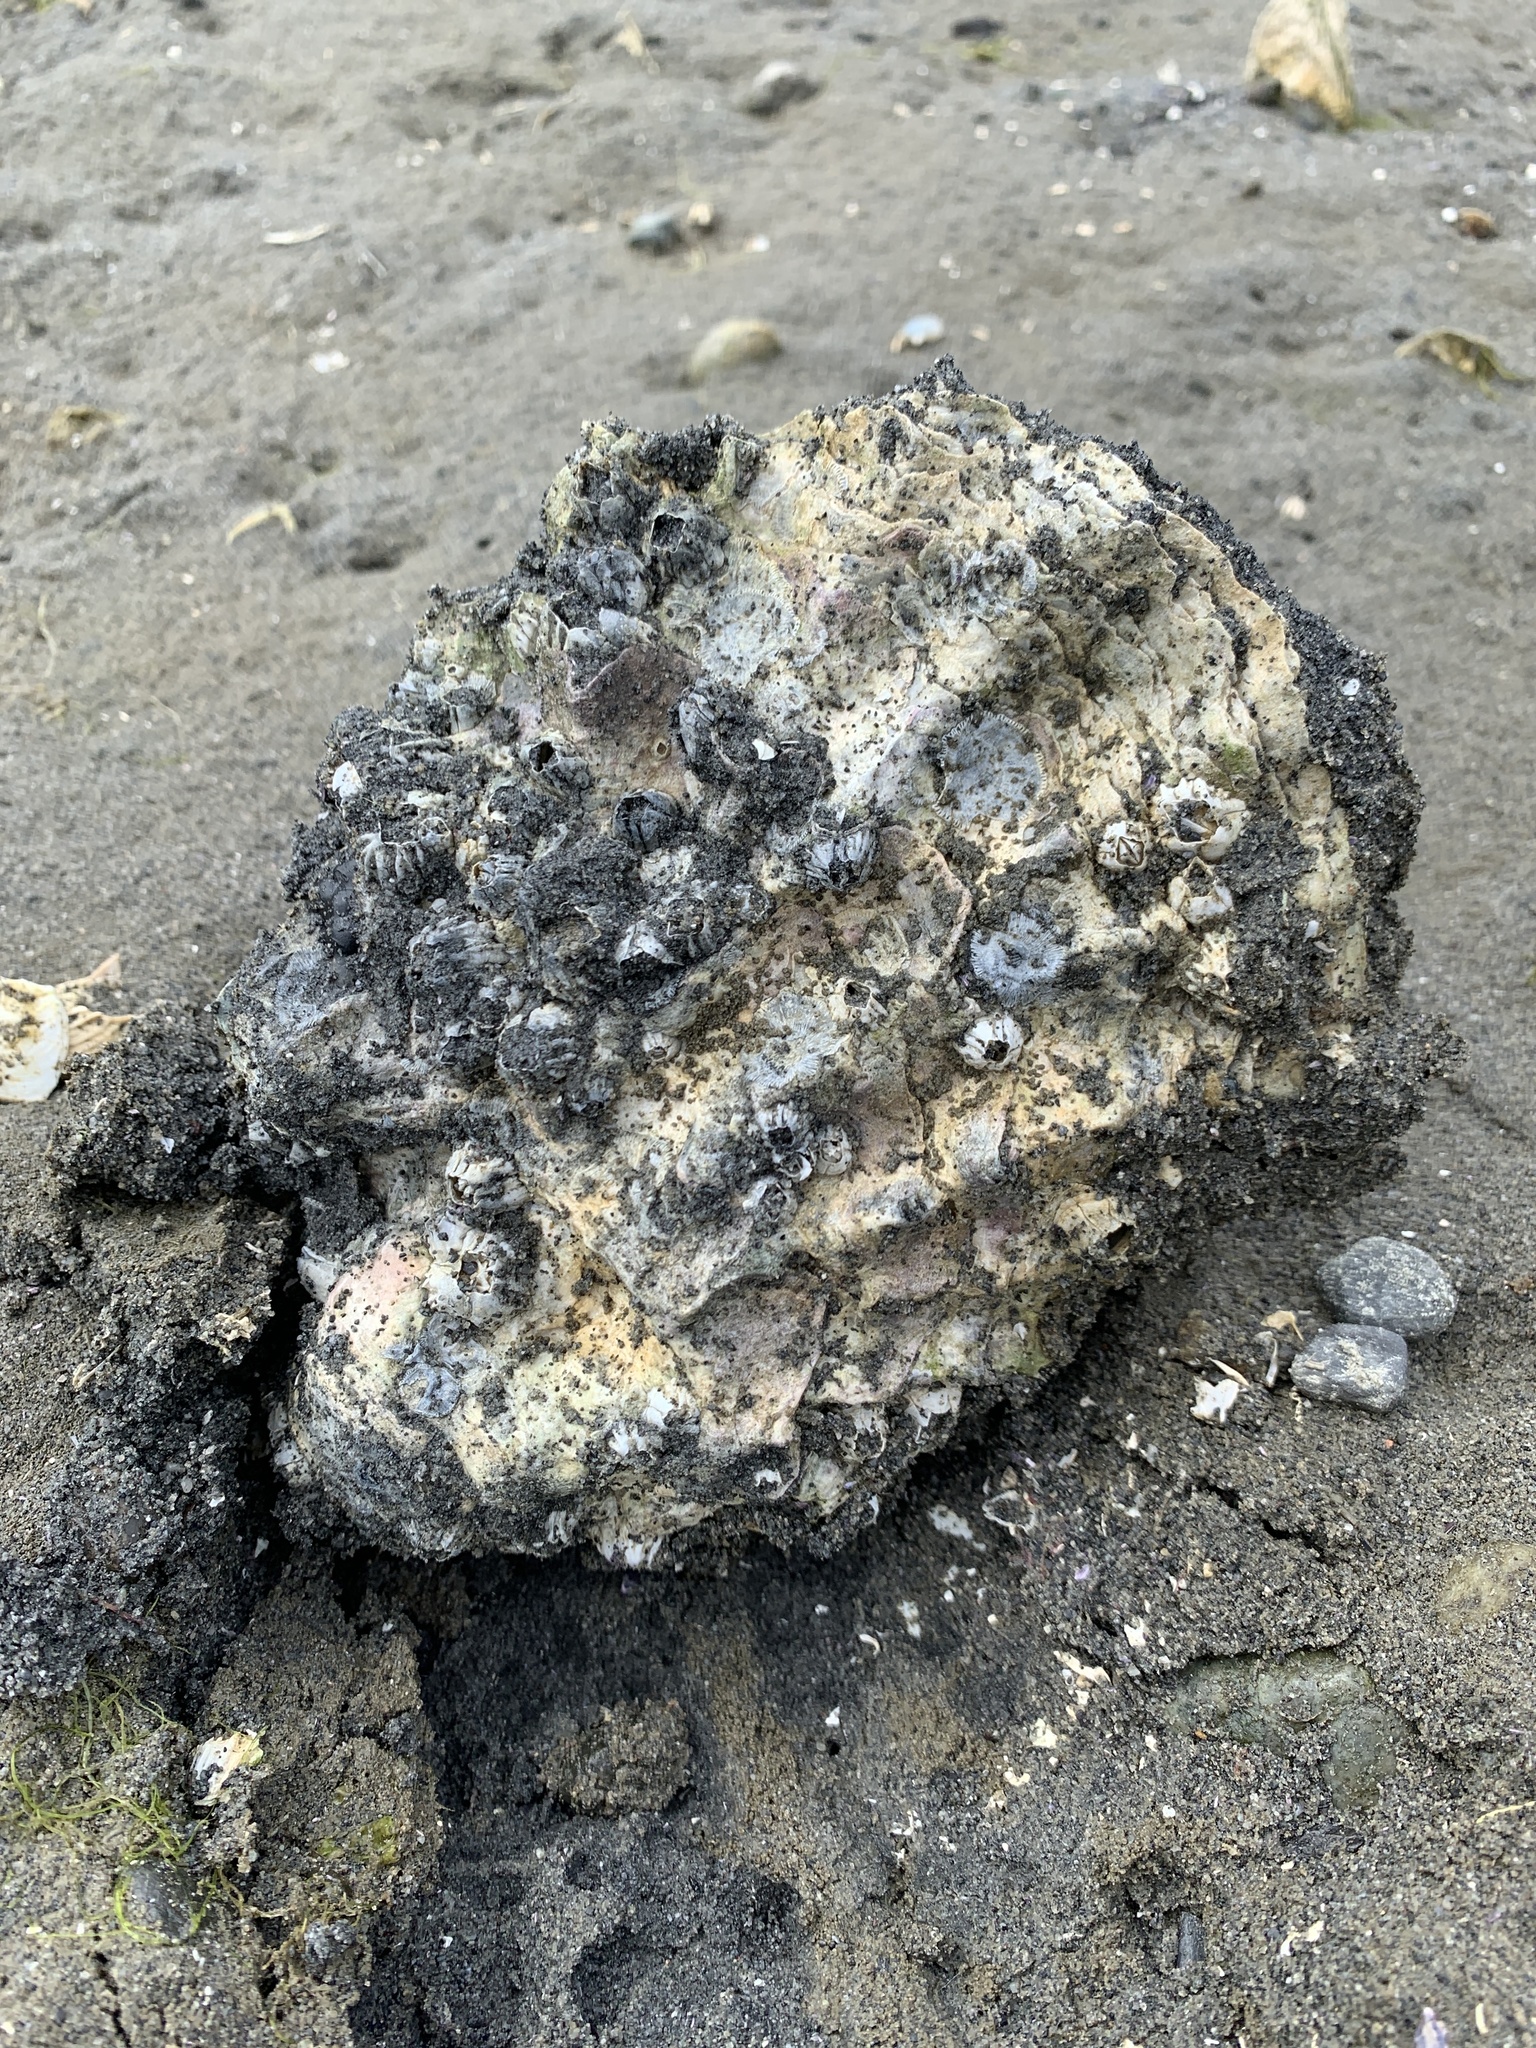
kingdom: Animalia
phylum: Mollusca
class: Bivalvia
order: Ostreida
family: Ostreidae
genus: Magallana
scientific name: Magallana gigas
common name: Pacific oyster
